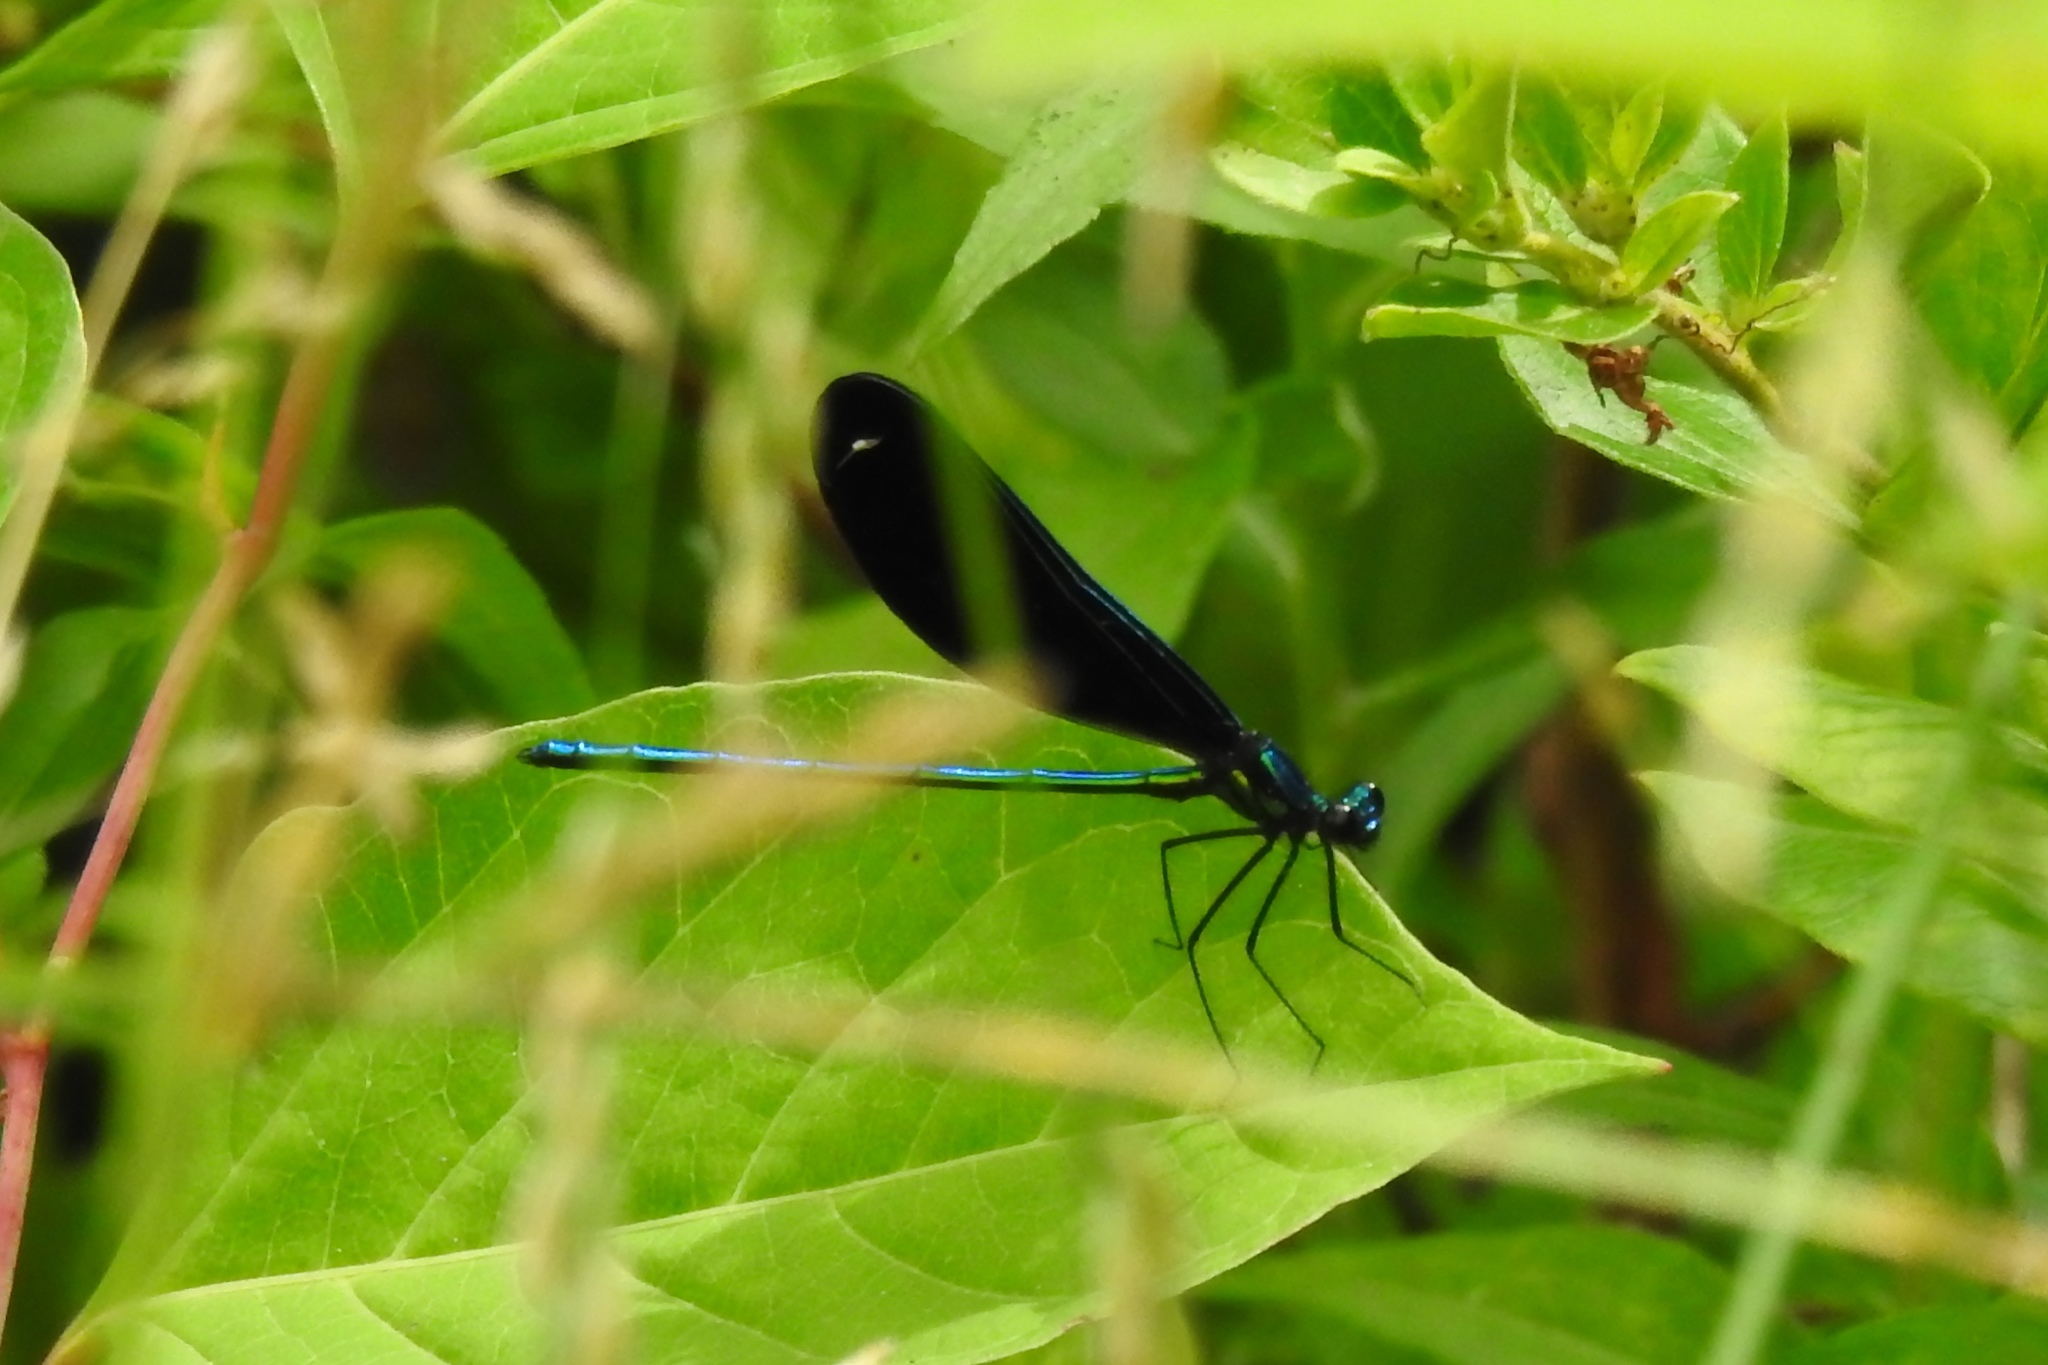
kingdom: Animalia
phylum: Arthropoda
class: Insecta
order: Odonata
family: Calopterygidae
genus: Calopteryx
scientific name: Calopteryx maculata
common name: Ebony jewelwing
